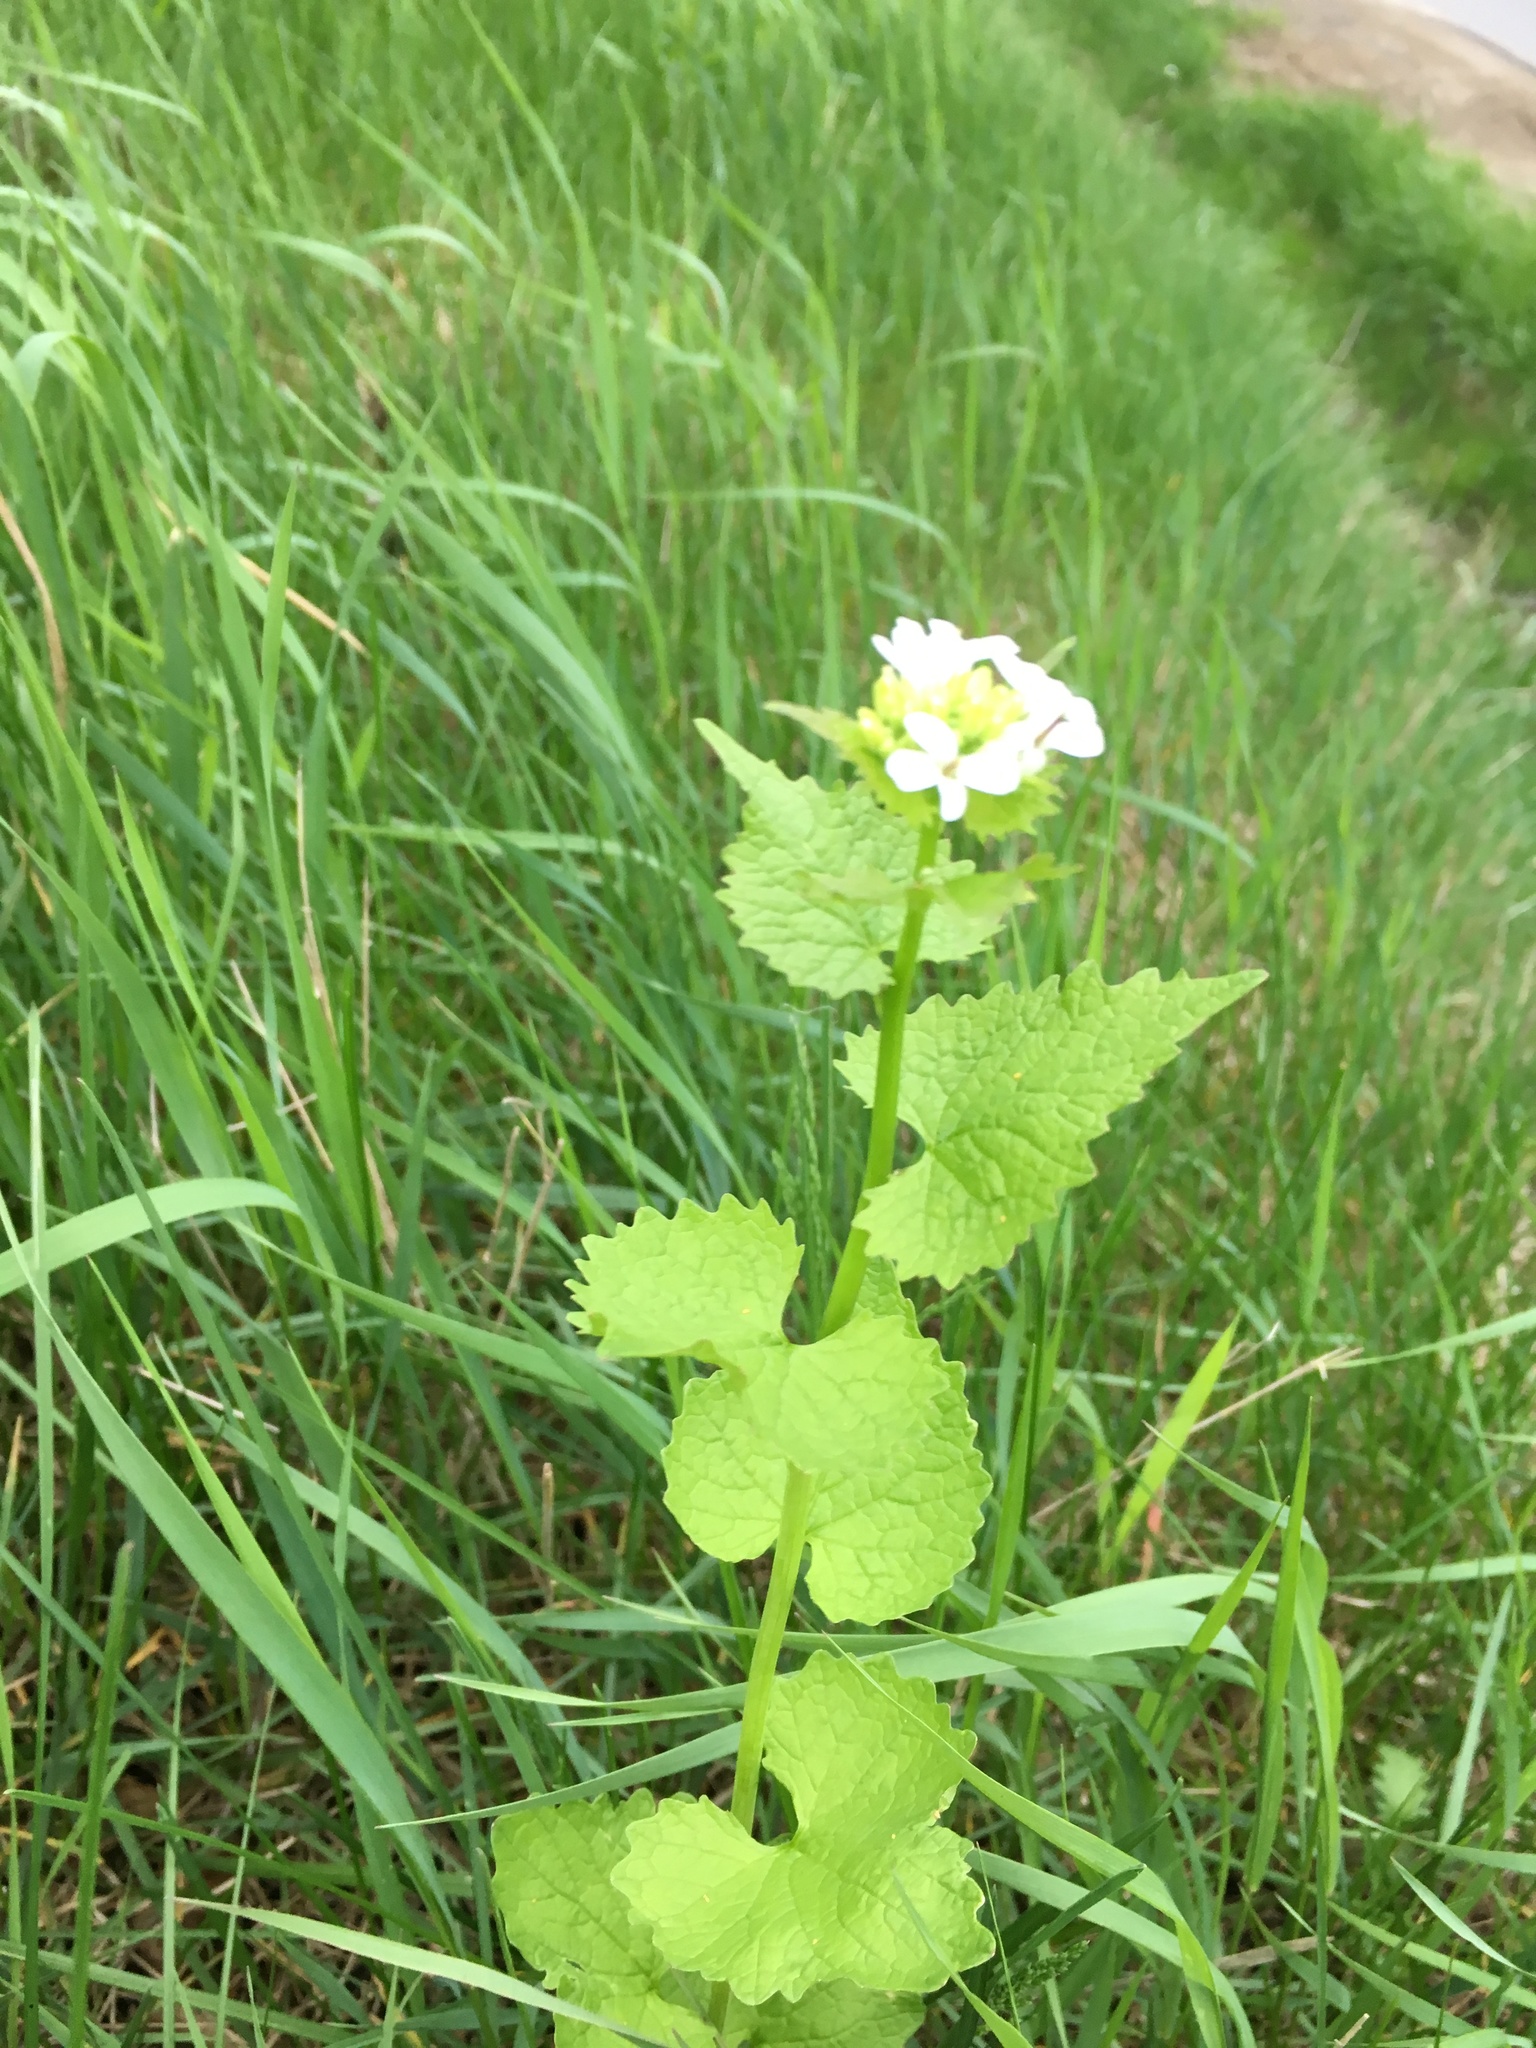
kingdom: Plantae
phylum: Tracheophyta
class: Magnoliopsida
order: Brassicales
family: Brassicaceae
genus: Alliaria
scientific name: Alliaria petiolata
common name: Garlic mustard
